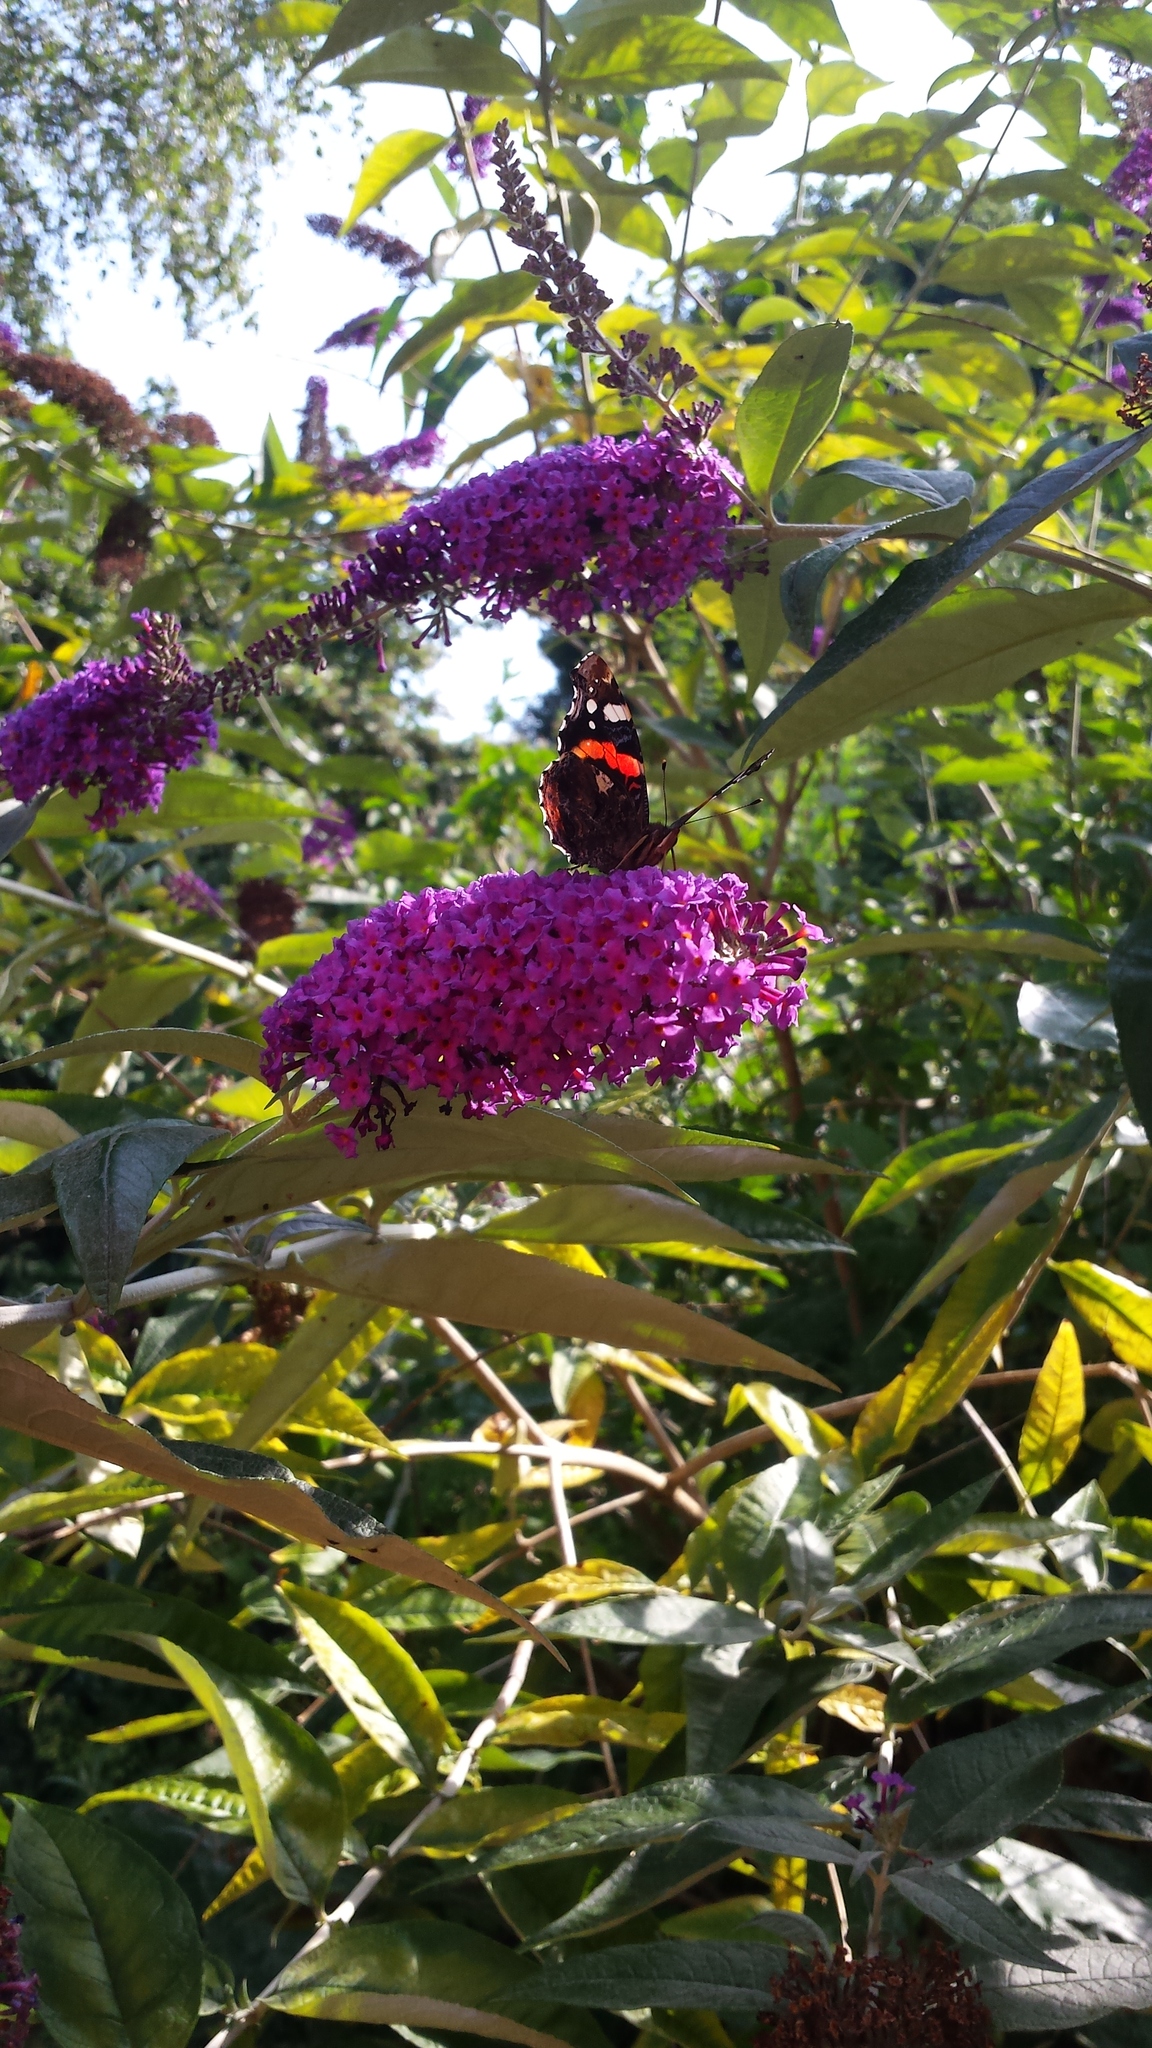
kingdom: Animalia
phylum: Arthropoda
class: Insecta
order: Lepidoptera
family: Nymphalidae
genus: Vanessa
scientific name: Vanessa atalanta
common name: Red admiral
